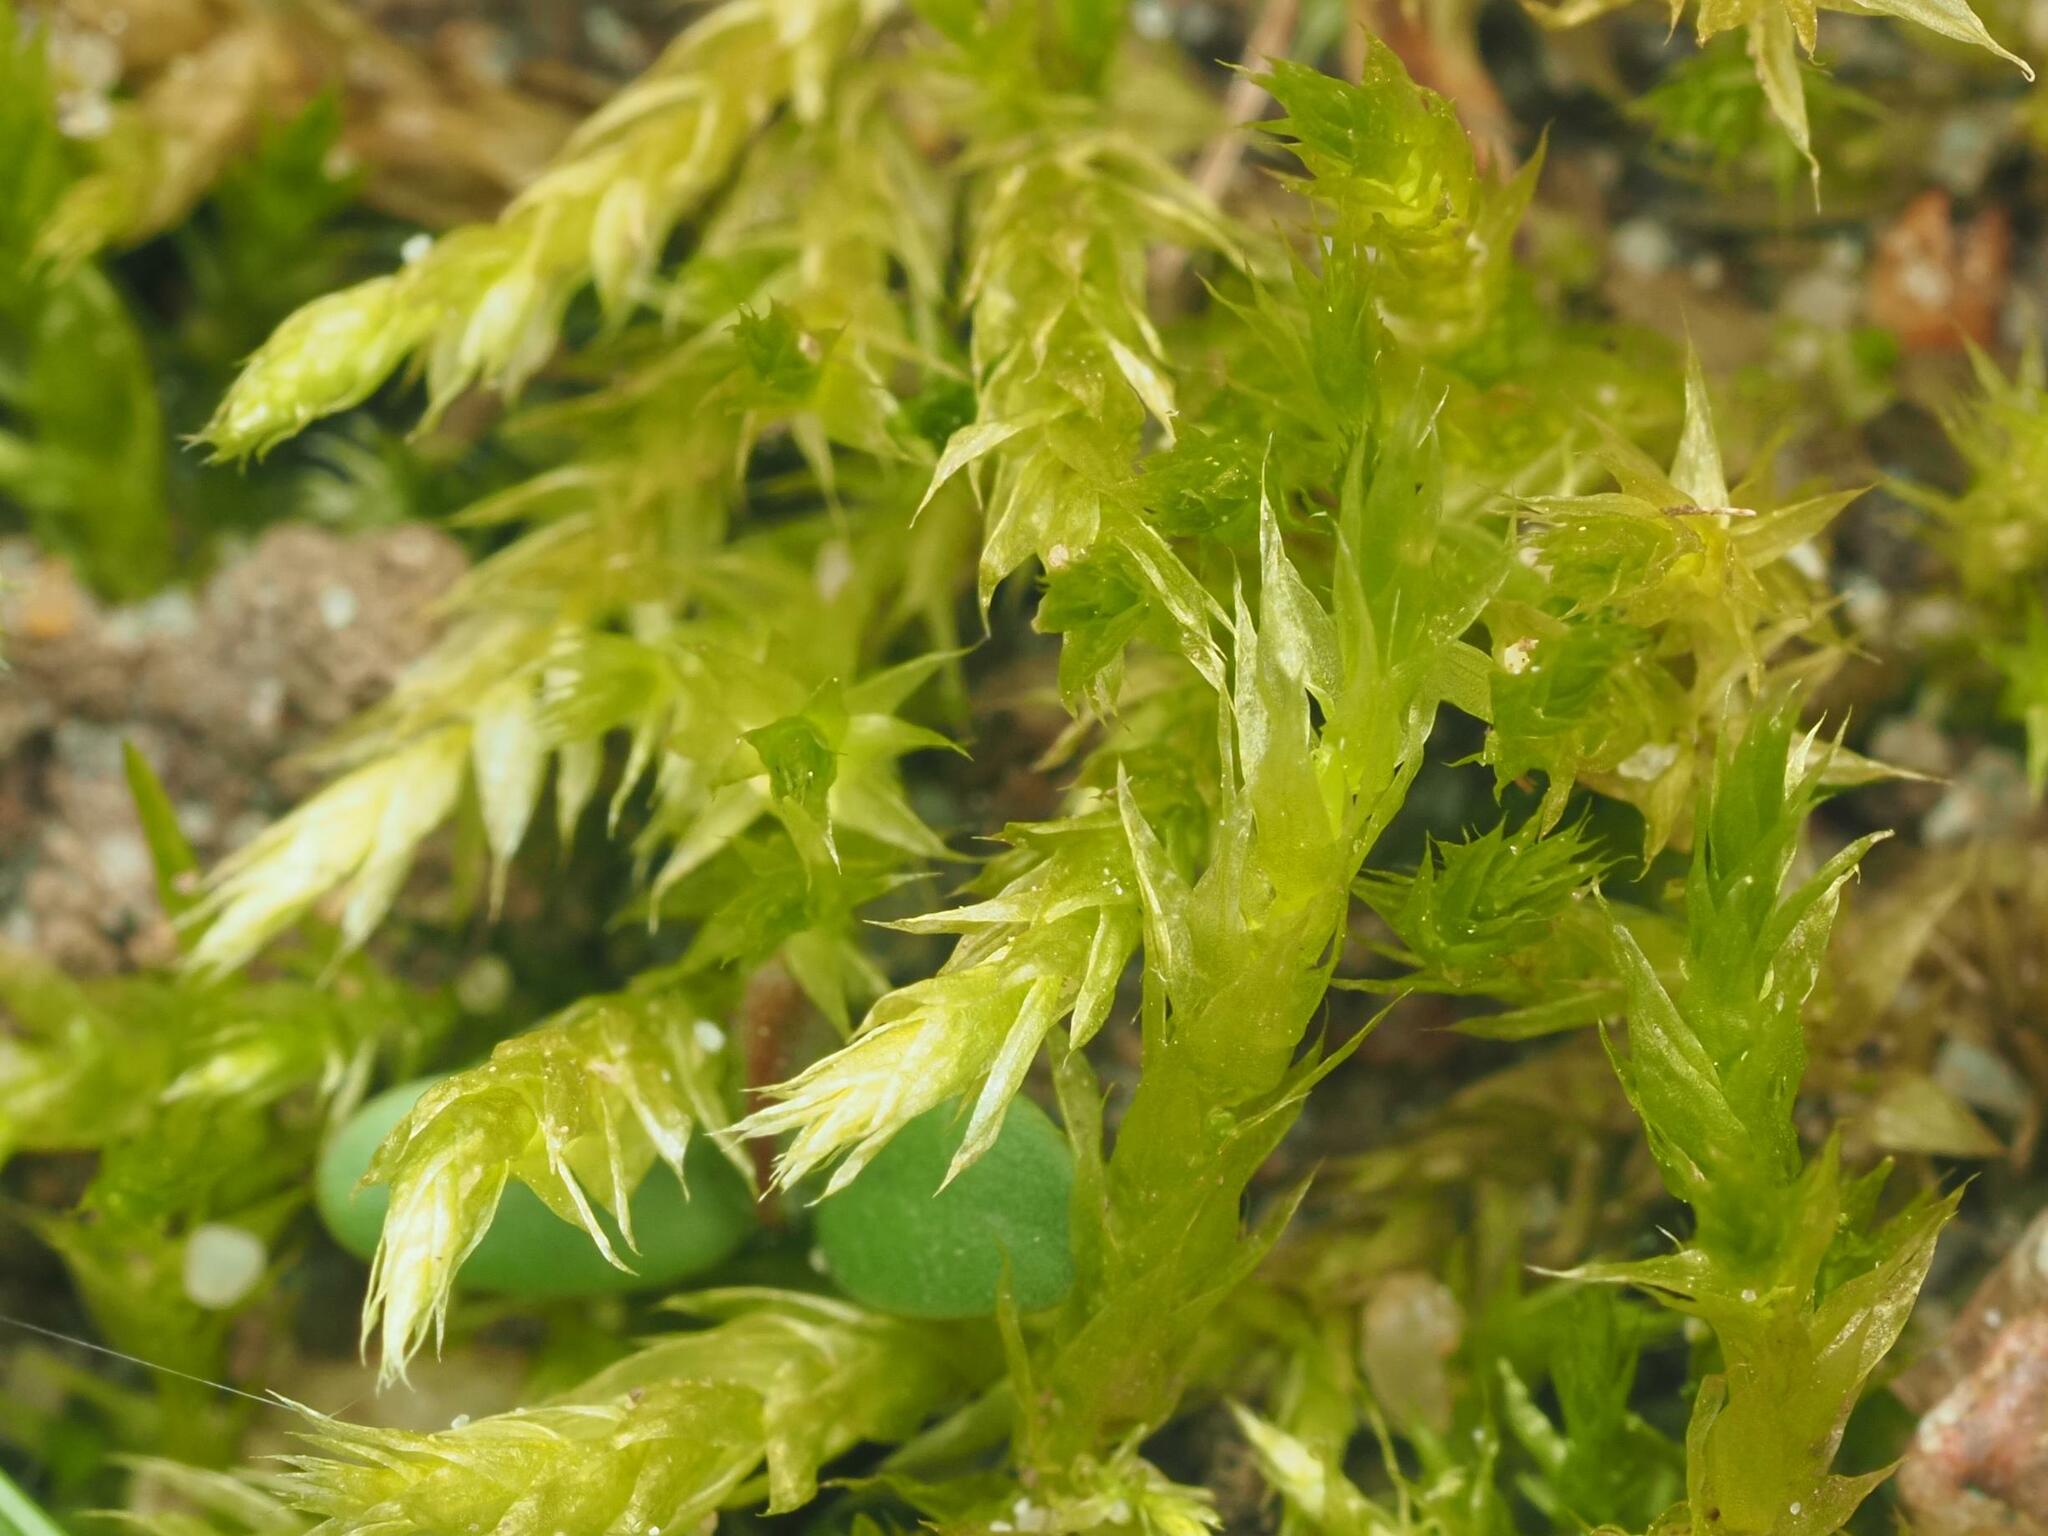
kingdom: Plantae
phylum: Bryophyta
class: Bryopsida
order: Hypnales
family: Brachytheciaceae
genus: Brachythecium
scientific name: Brachythecium albicans
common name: Whitish ragged moss
